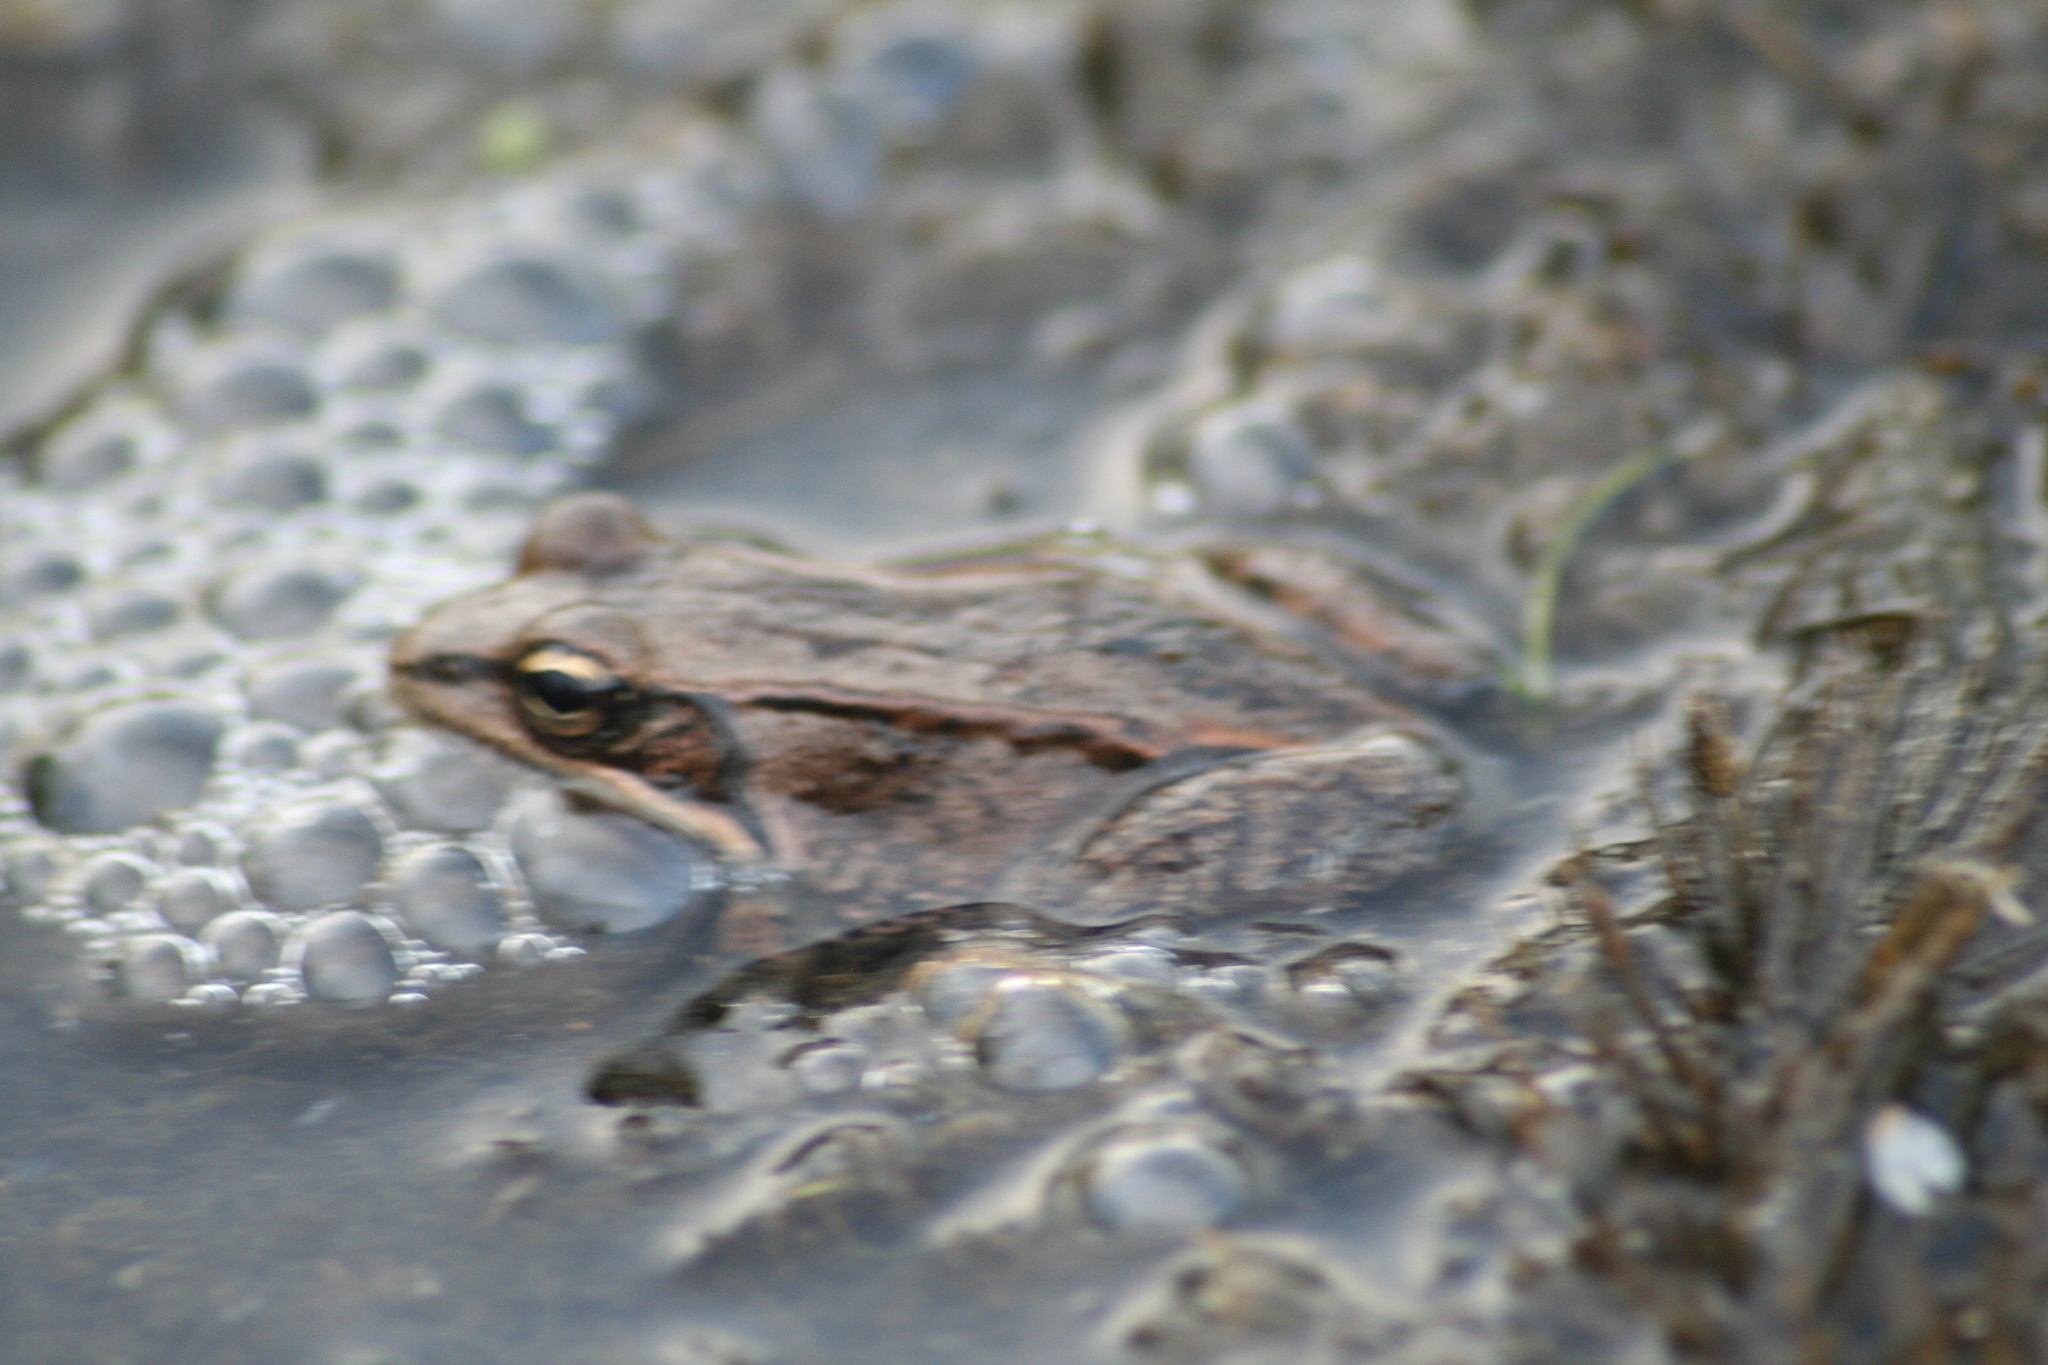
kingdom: Animalia
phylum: Chordata
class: Amphibia
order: Anura
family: Ranidae
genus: Lithobates
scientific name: Lithobates sylvaticus
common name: Wood frog
